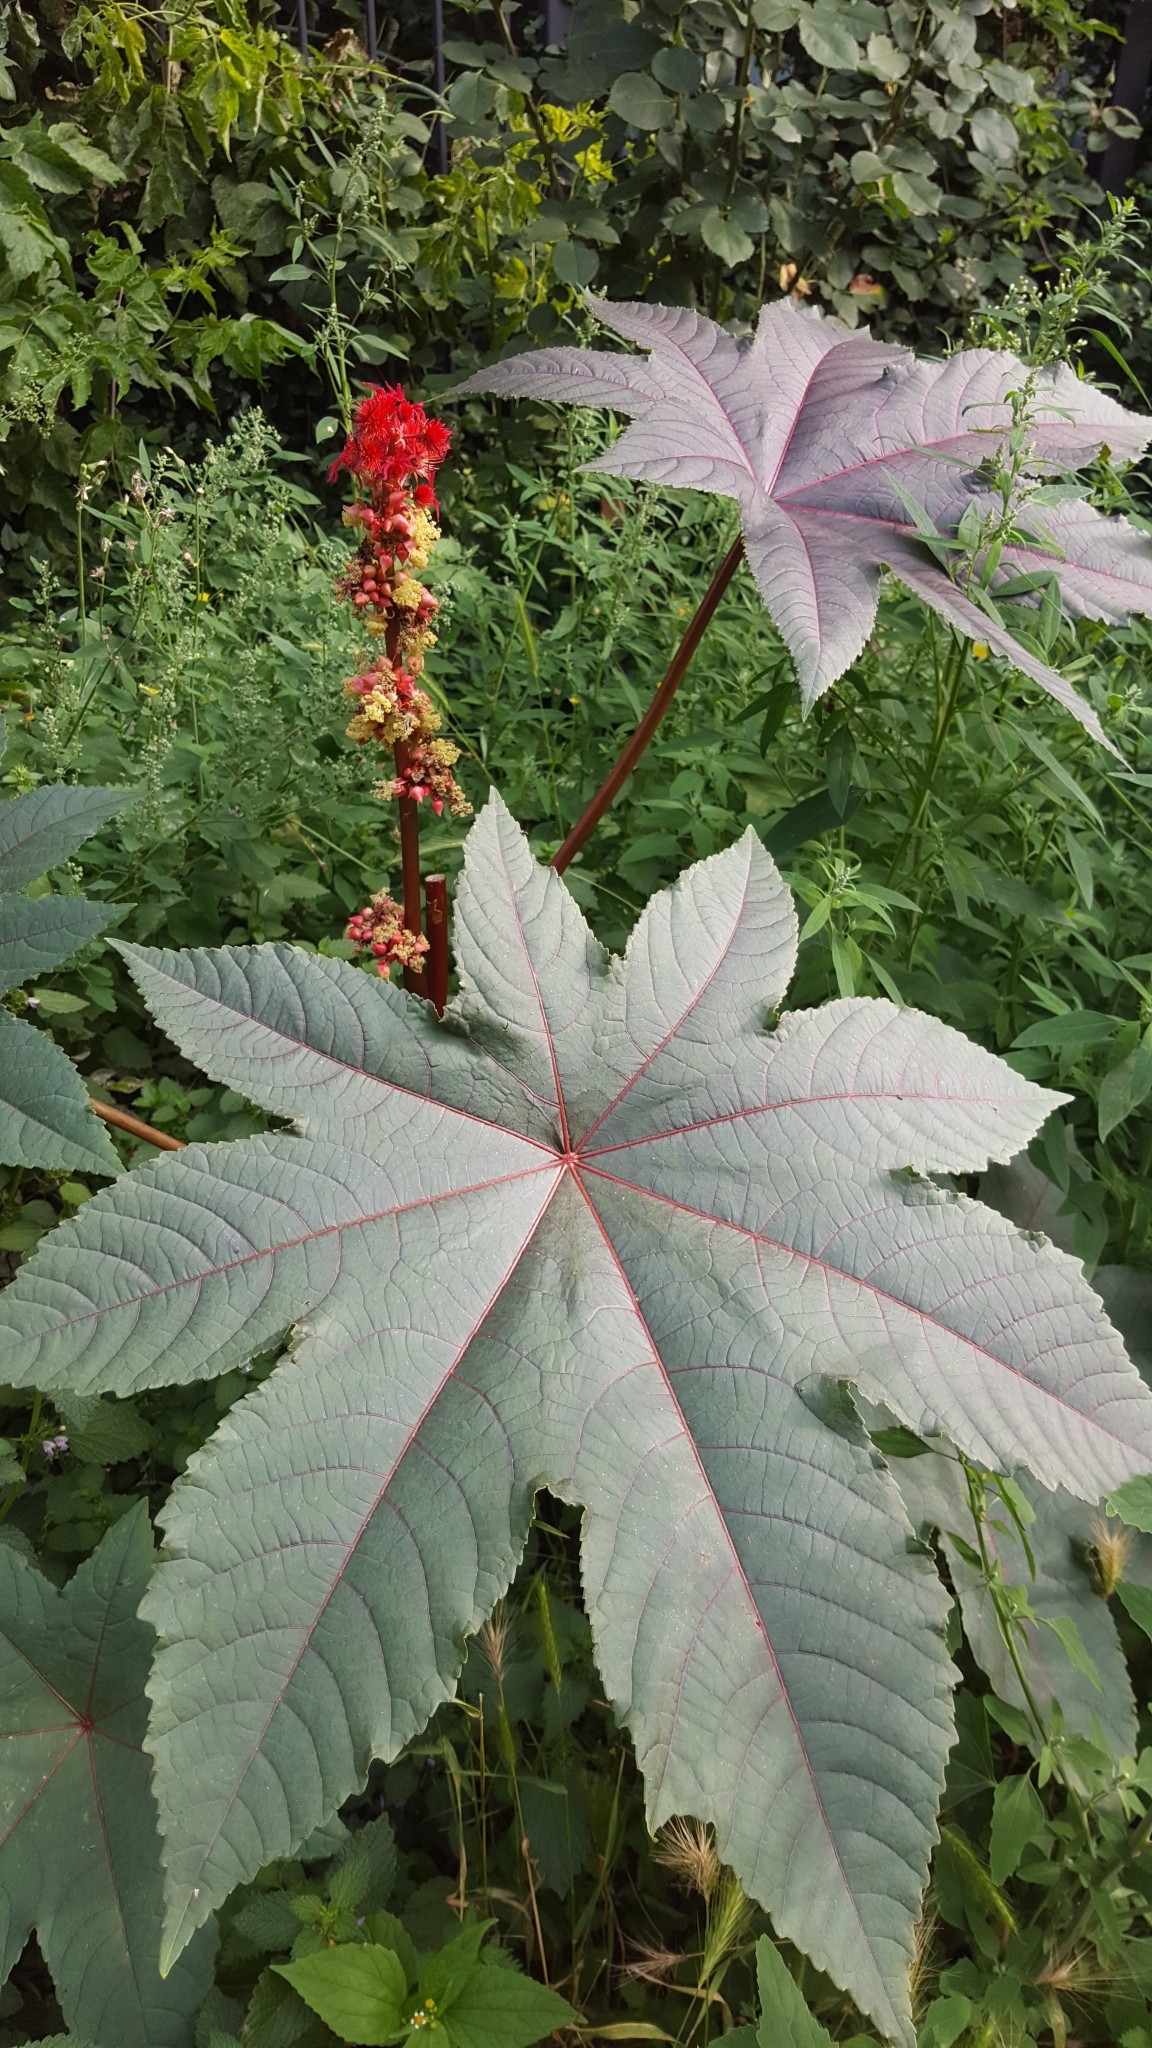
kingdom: Plantae
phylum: Tracheophyta
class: Magnoliopsida
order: Malpighiales
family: Euphorbiaceae
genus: Ricinus
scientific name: Ricinus communis
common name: Castor-oil-plant
